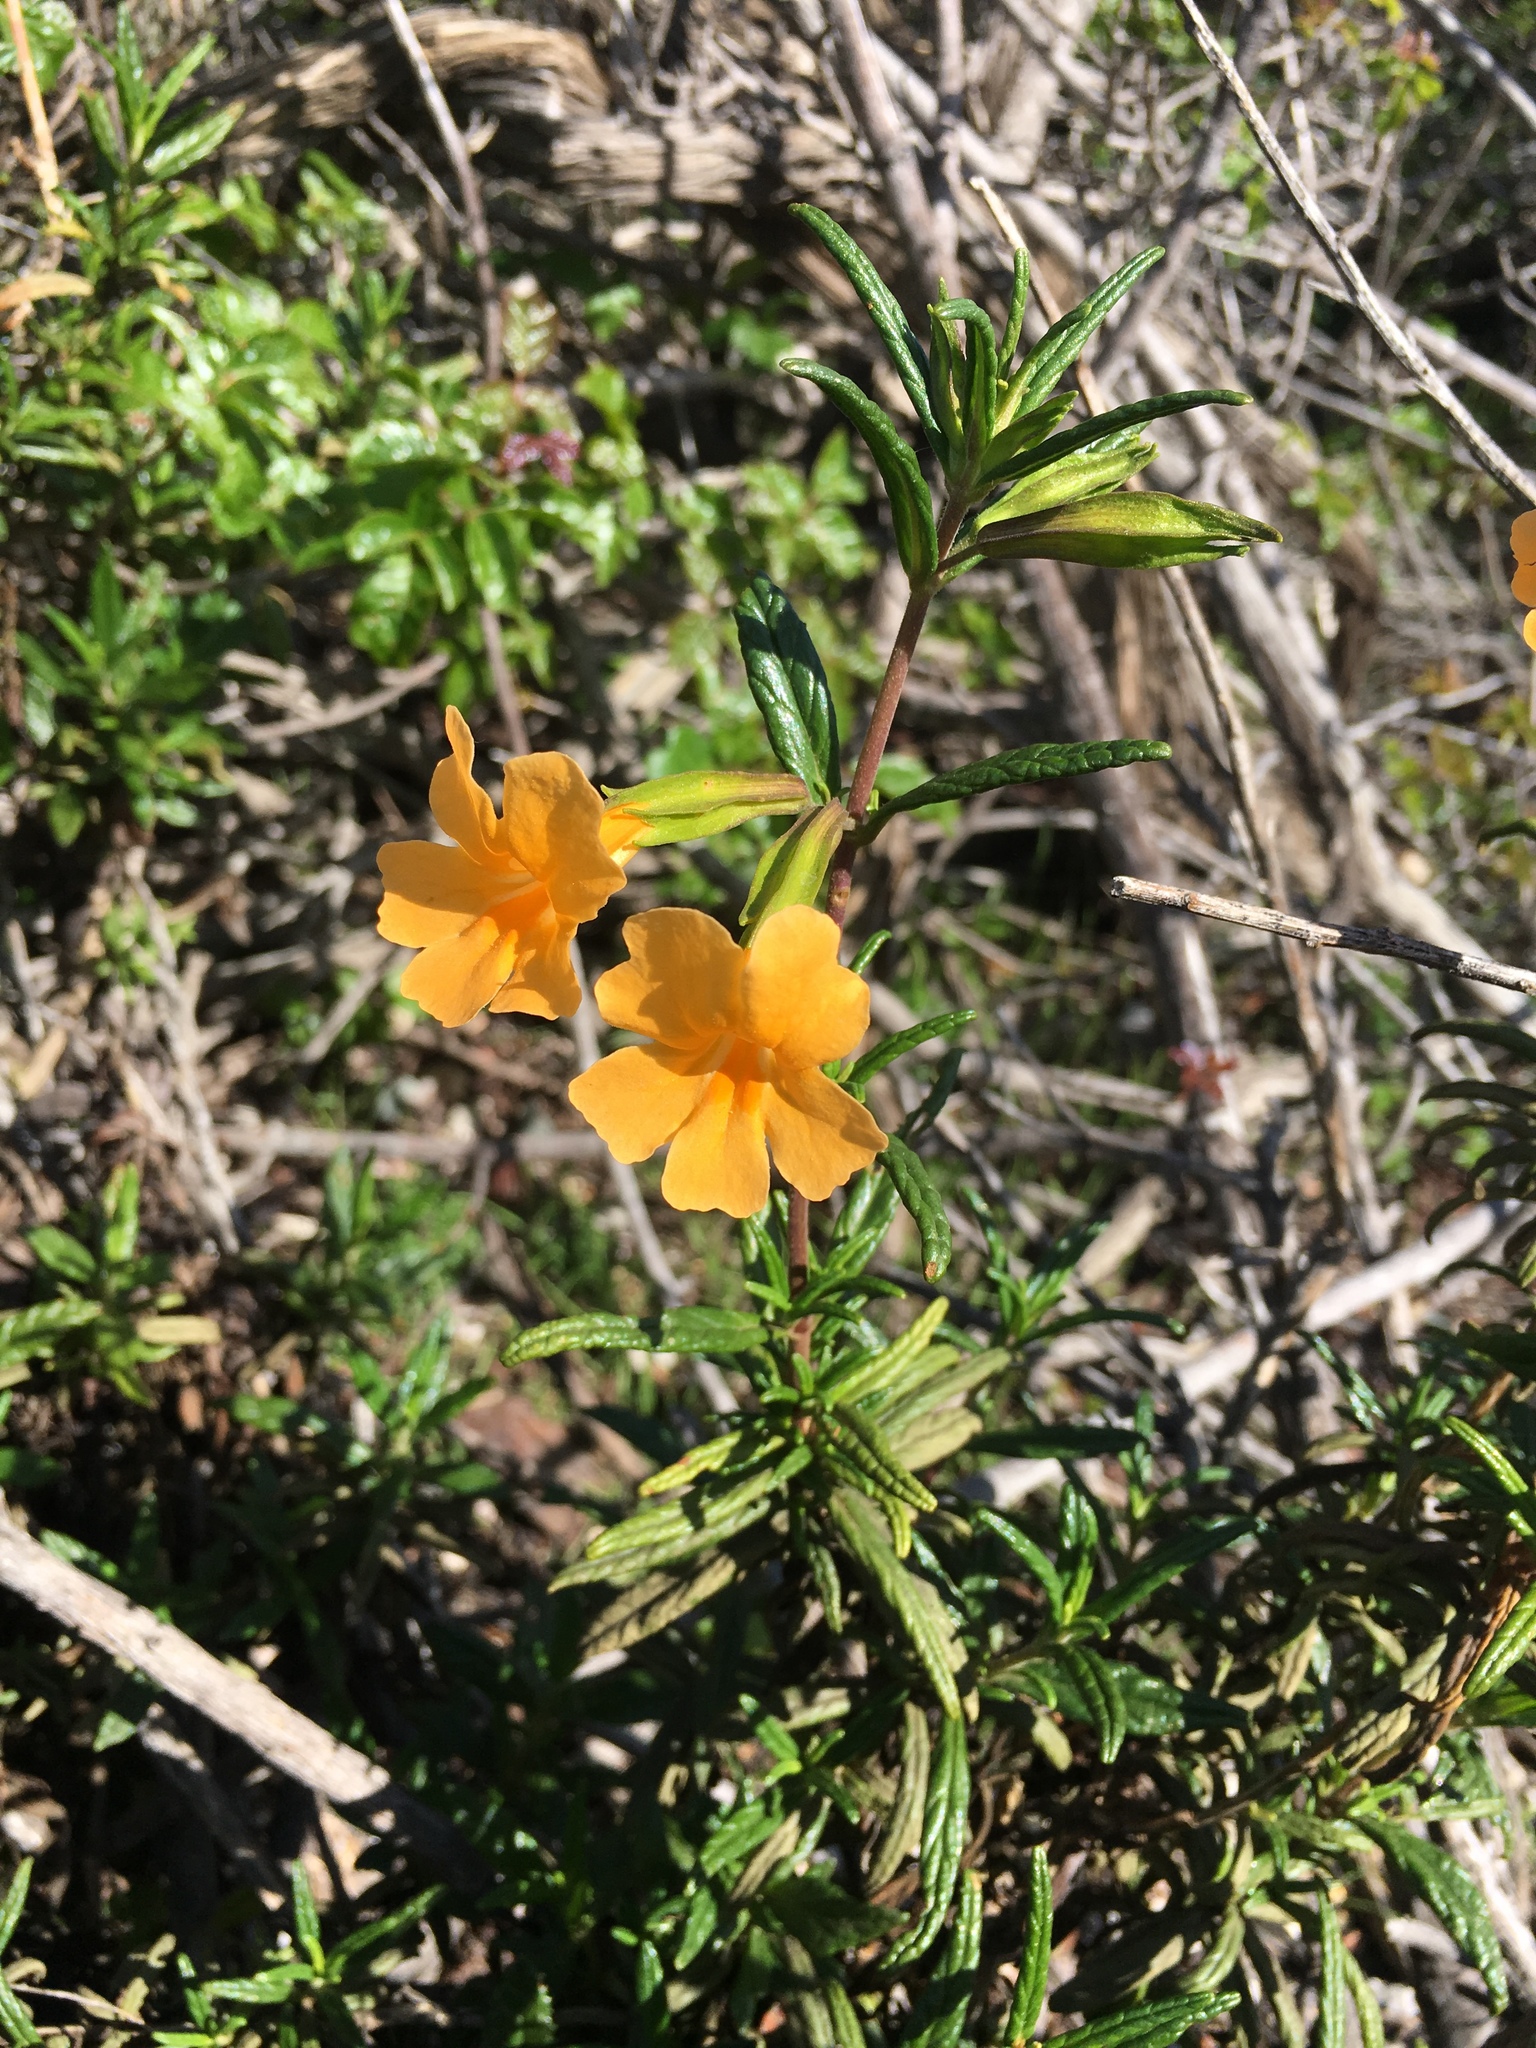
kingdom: Plantae
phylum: Tracheophyta
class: Magnoliopsida
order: Lamiales
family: Phrymaceae
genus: Diplacus
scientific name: Diplacus aurantiacus
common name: Bush monkey-flower
